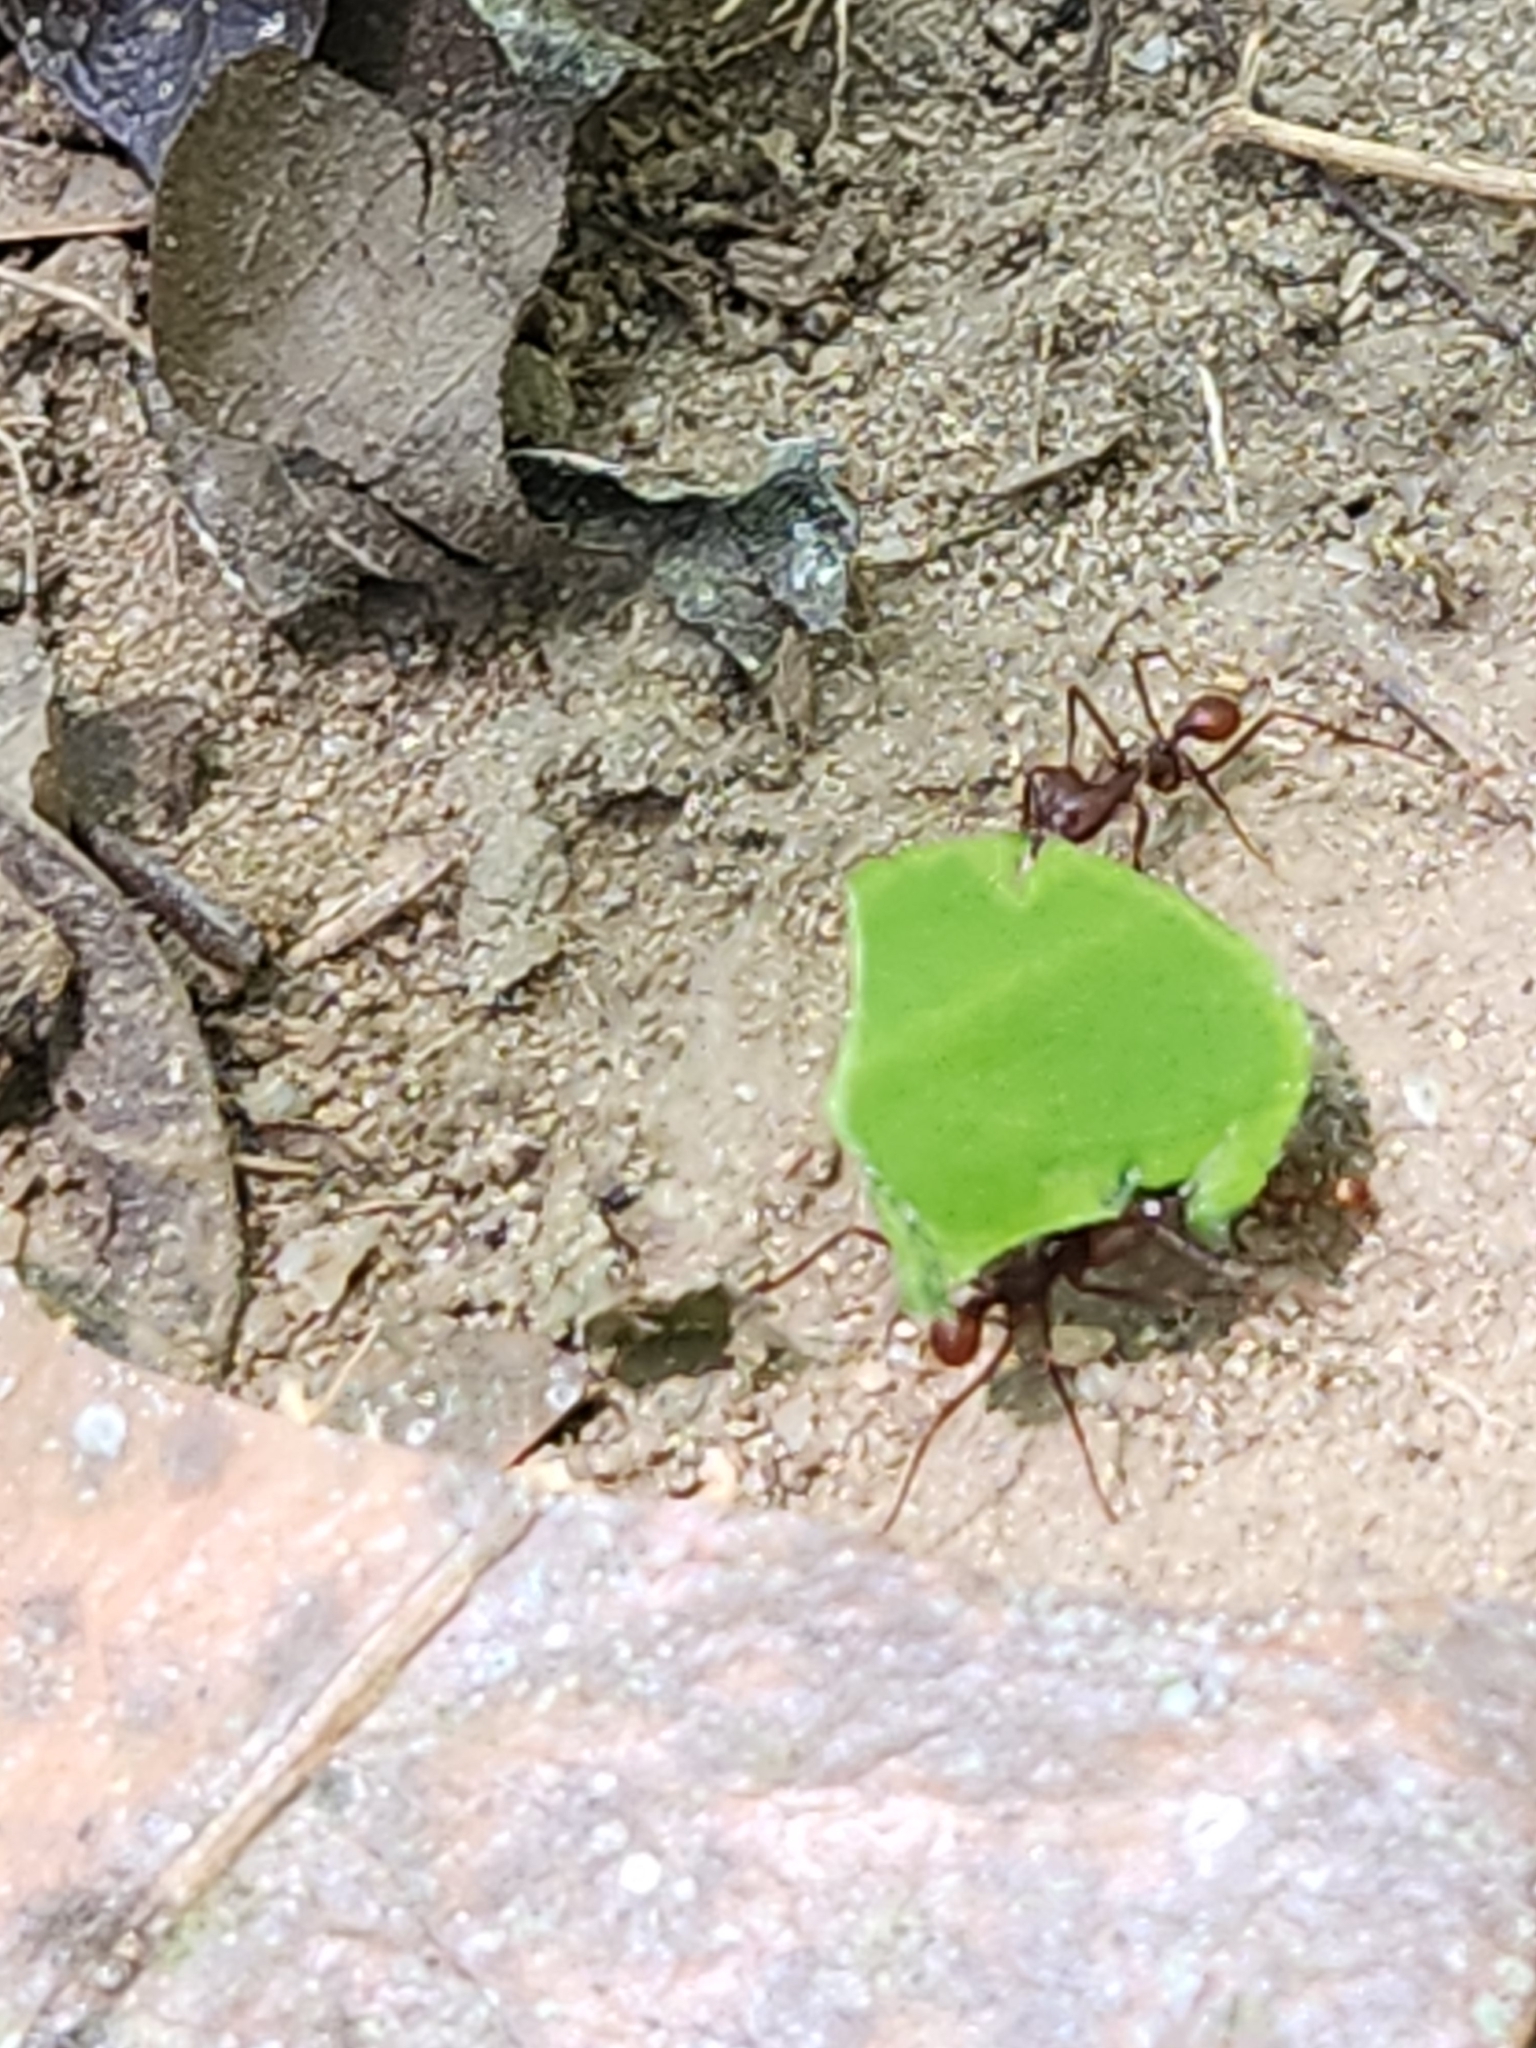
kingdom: Animalia
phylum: Arthropoda
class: Insecta
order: Hymenoptera
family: Formicidae
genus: Atta
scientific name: Atta cephalotes
